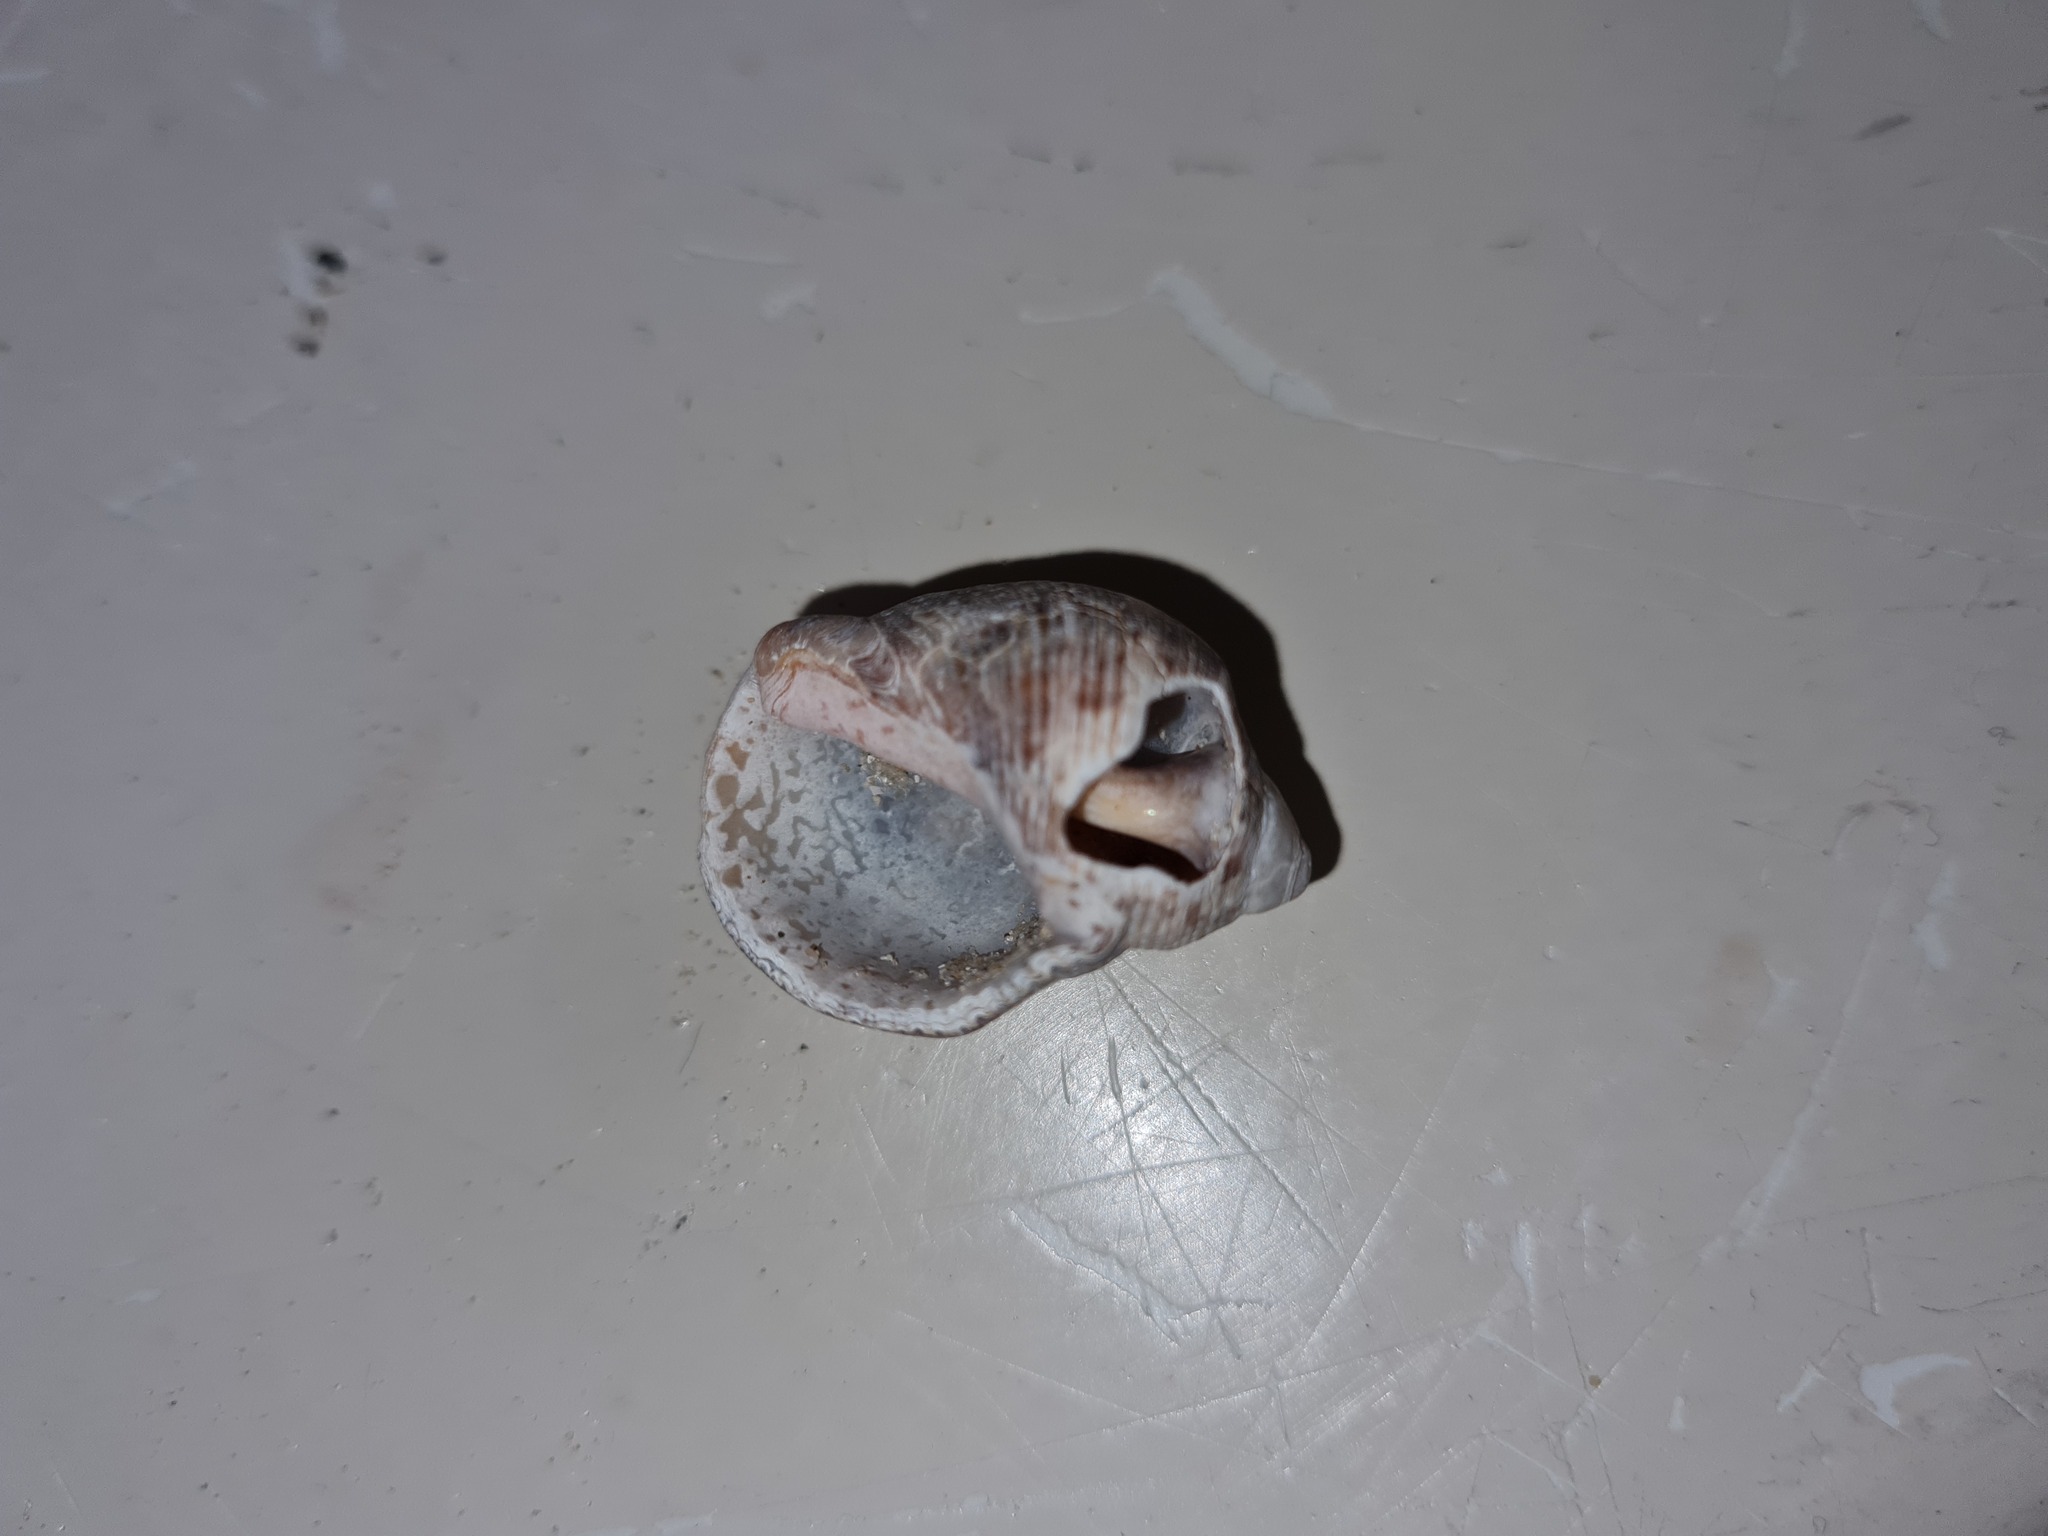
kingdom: Animalia
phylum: Mollusca
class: Gastropoda
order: Neogastropoda
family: Muricidae
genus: Stramonita
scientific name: Stramonita brasiliensis
